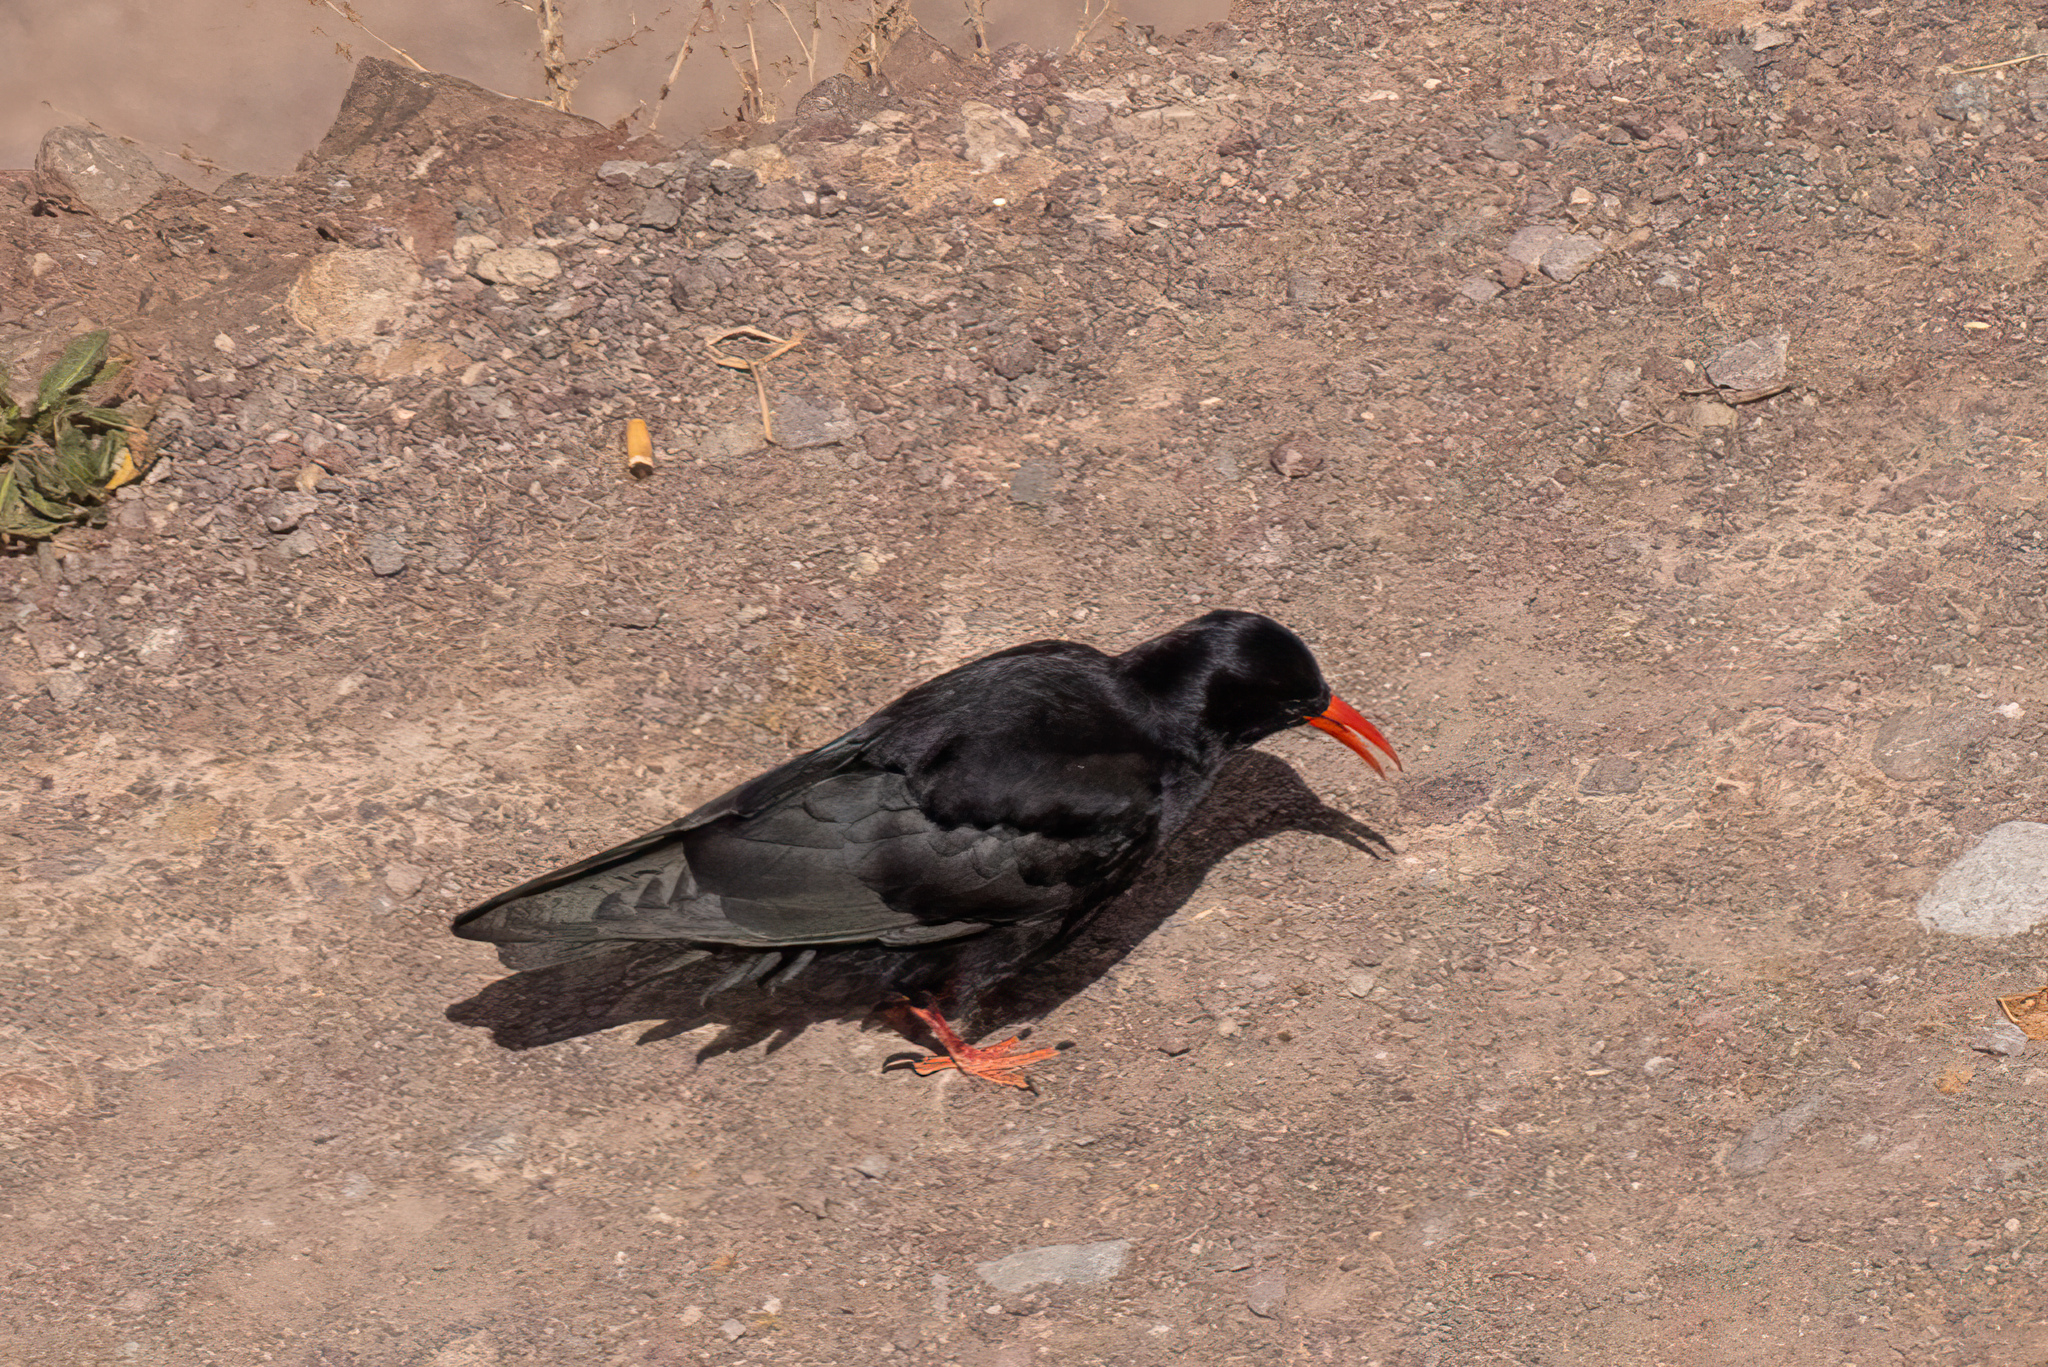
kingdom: Animalia
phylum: Chordata
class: Aves
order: Passeriformes
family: Corvidae
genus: Pyrrhocorax
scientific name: Pyrrhocorax pyrrhocorax
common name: Red-billed chough
